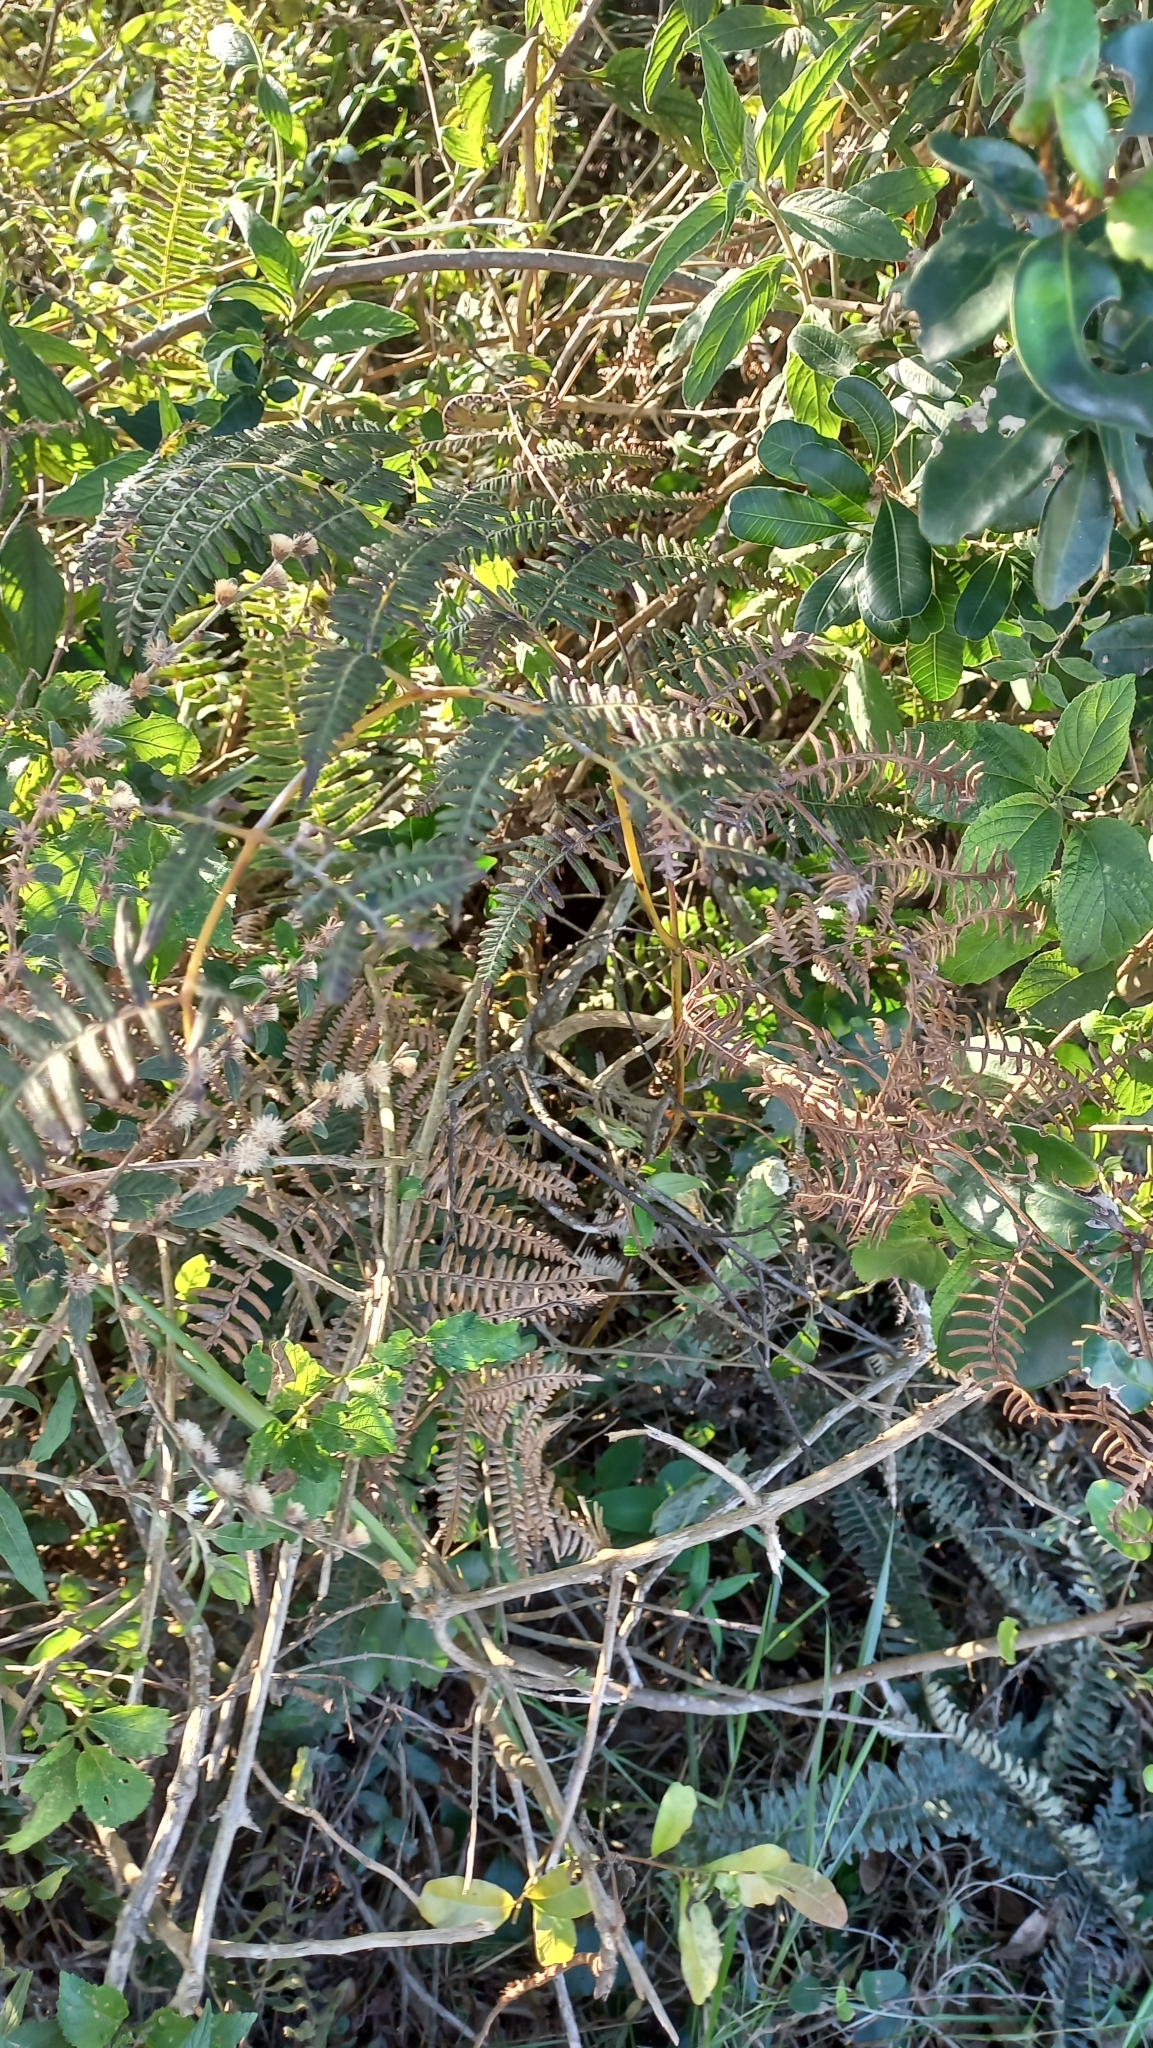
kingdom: Plantae
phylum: Tracheophyta
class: Polypodiopsida
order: Polypodiales
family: Dennstaedtiaceae
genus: Pteridium
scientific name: Pteridium esculentum
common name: Bracken fern
